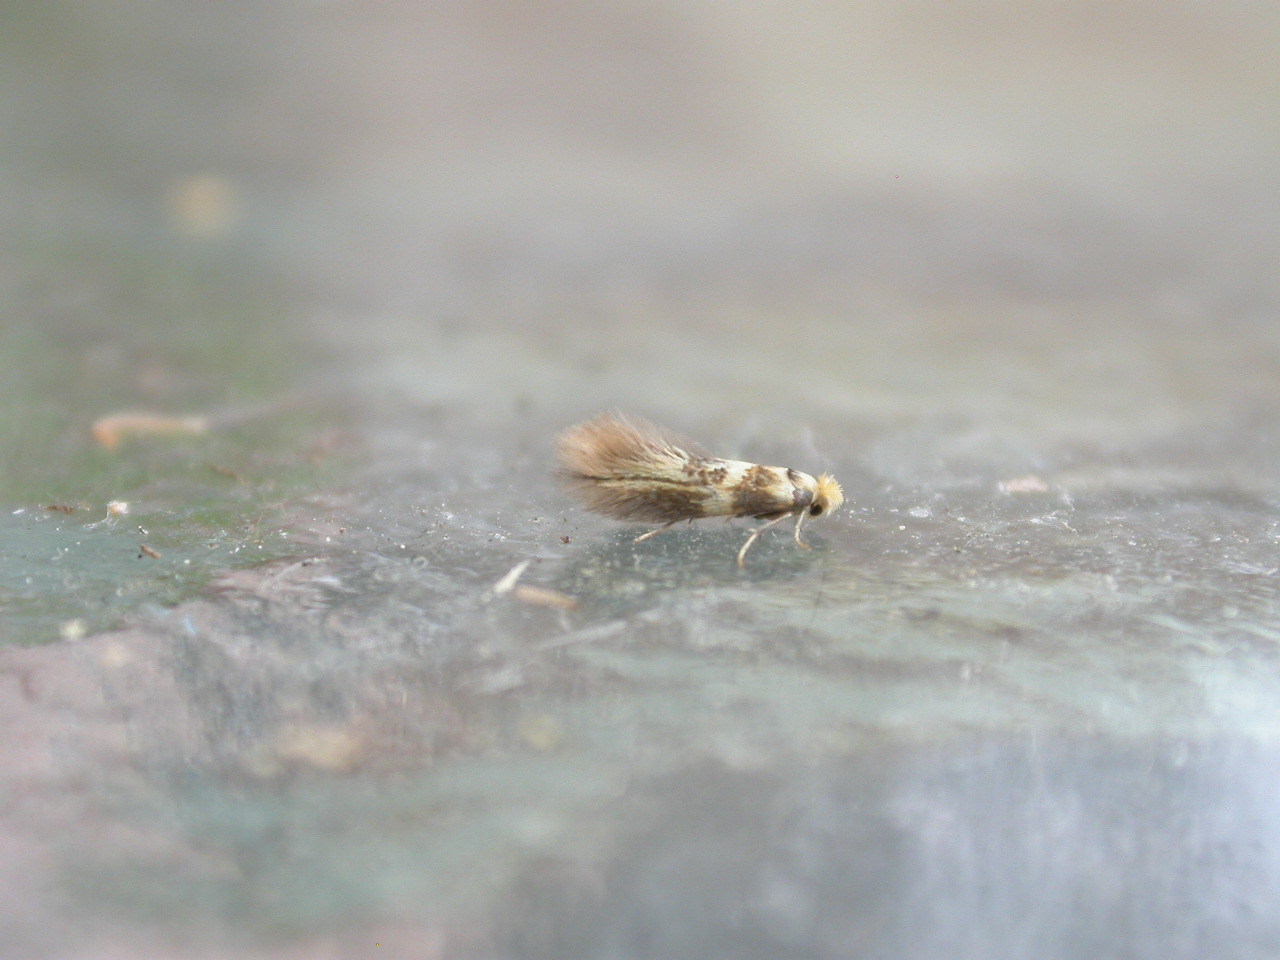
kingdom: Animalia
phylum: Arthropoda
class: Insecta
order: Lepidoptera
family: Bucculatricidae
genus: Bucculatrix
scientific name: Bucculatrix thoracella
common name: Lime bent-wing
